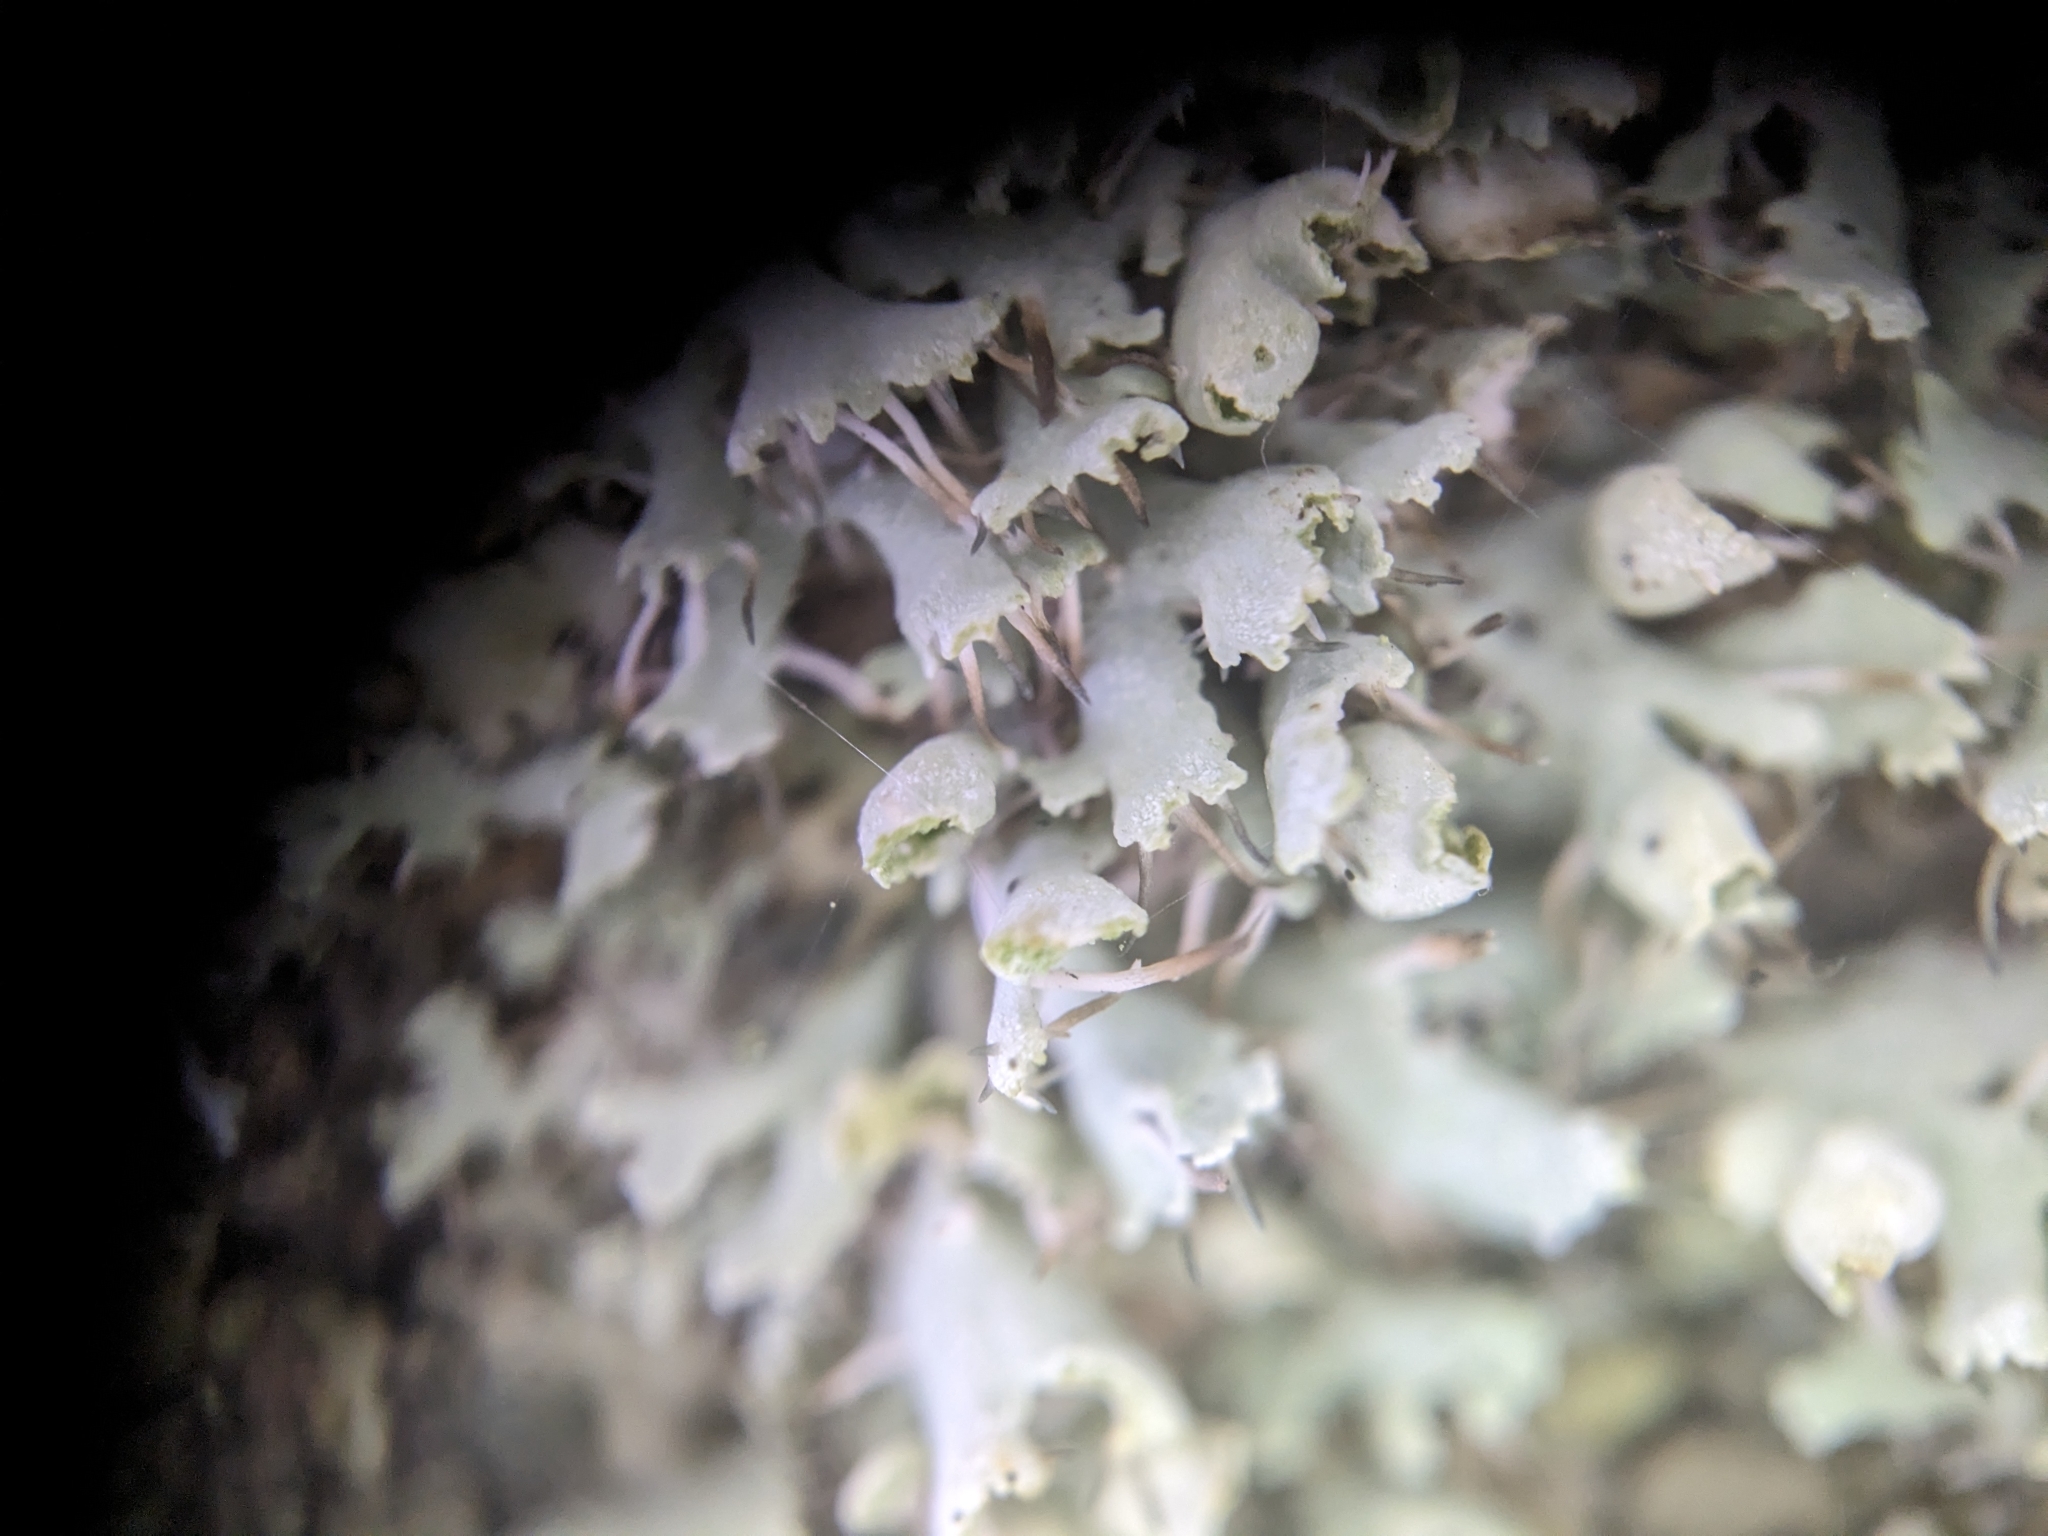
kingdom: Fungi
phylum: Ascomycota
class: Lecanoromycetes
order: Caliciales
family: Physciaceae
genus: Physcia
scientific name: Physcia adscendens
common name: Hooded rosette lichen
